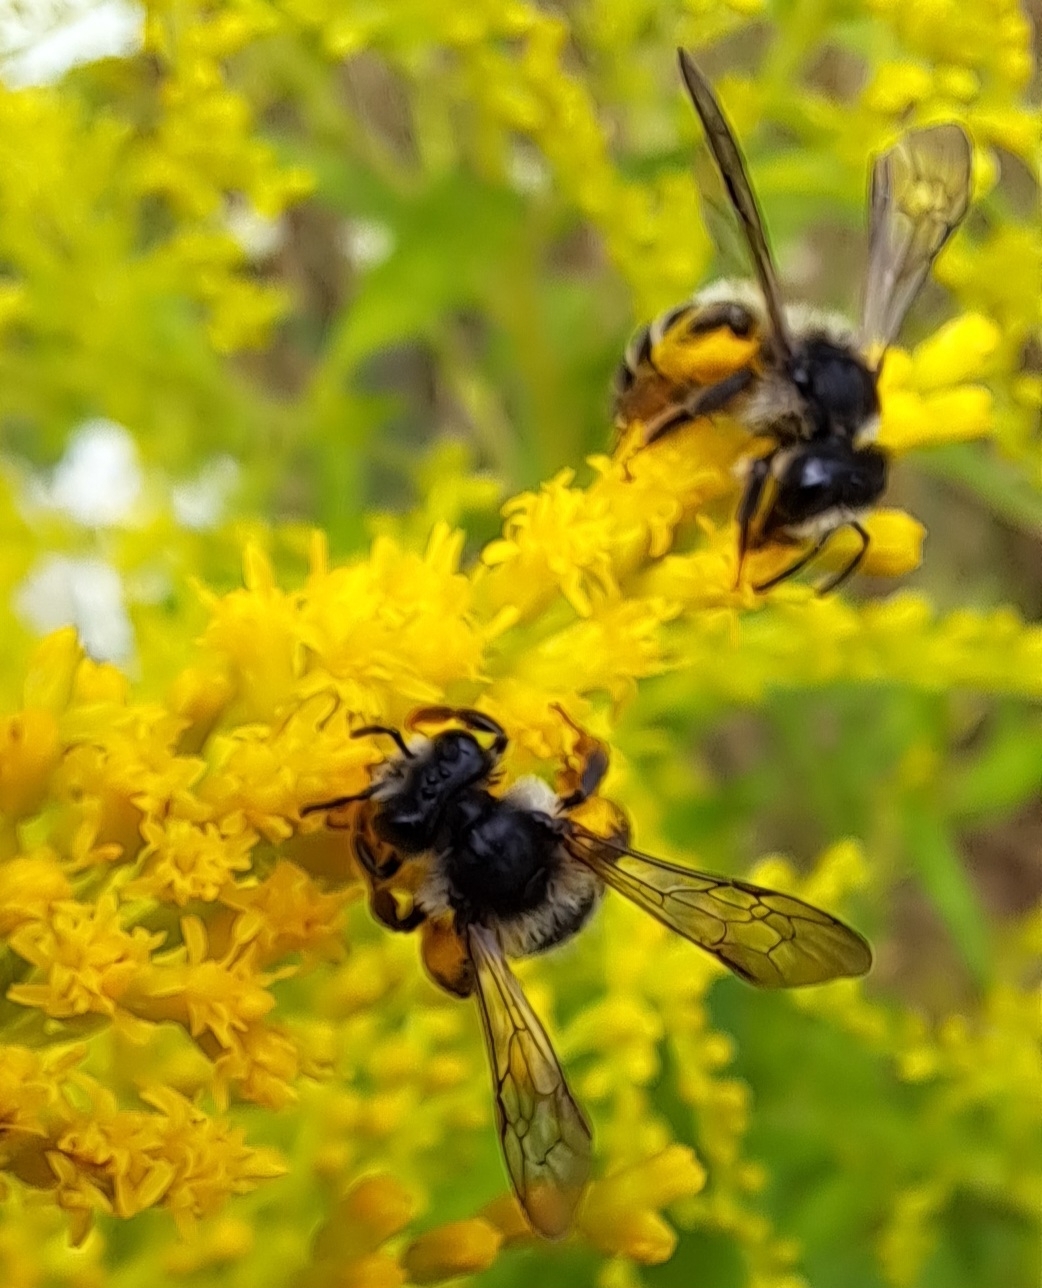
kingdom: Animalia
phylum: Arthropoda
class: Insecta
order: Hymenoptera
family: Andrenidae
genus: Andrena
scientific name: Andrena denticulata
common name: Grey-banded mining bee
